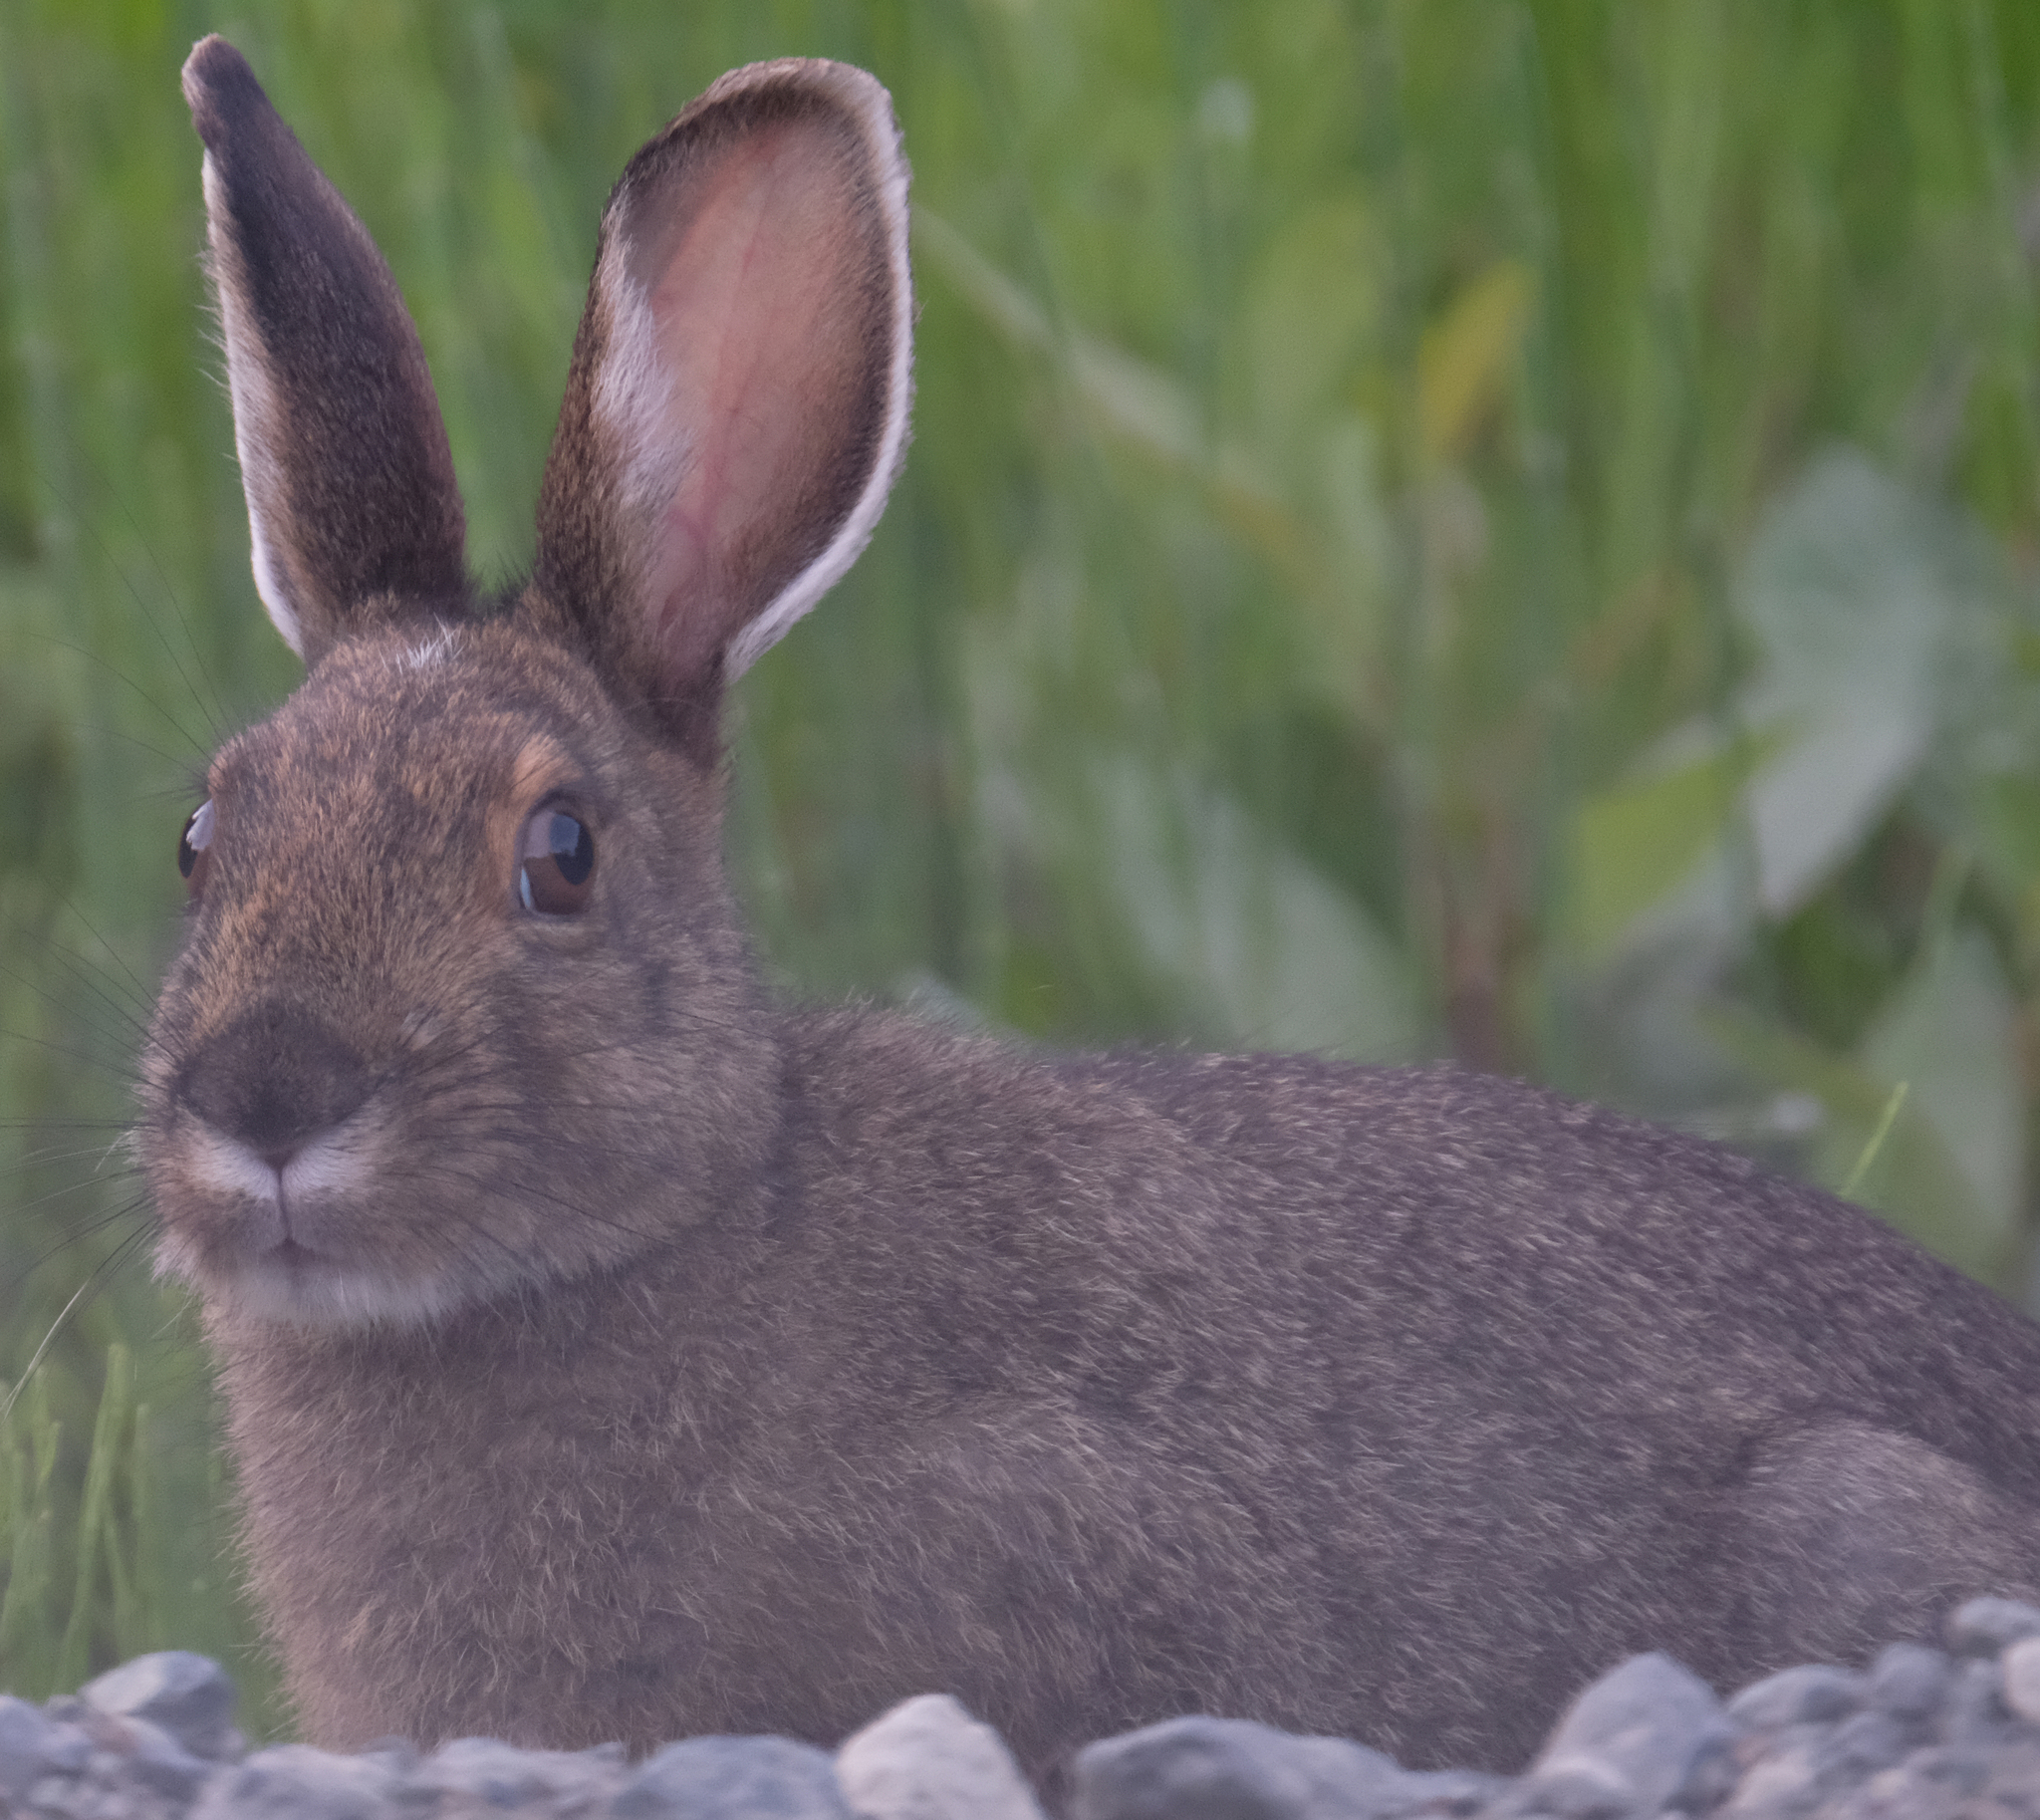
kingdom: Animalia
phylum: Chordata
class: Mammalia
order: Lagomorpha
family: Leporidae
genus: Lepus
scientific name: Lepus americanus
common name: Snowshoe hare
